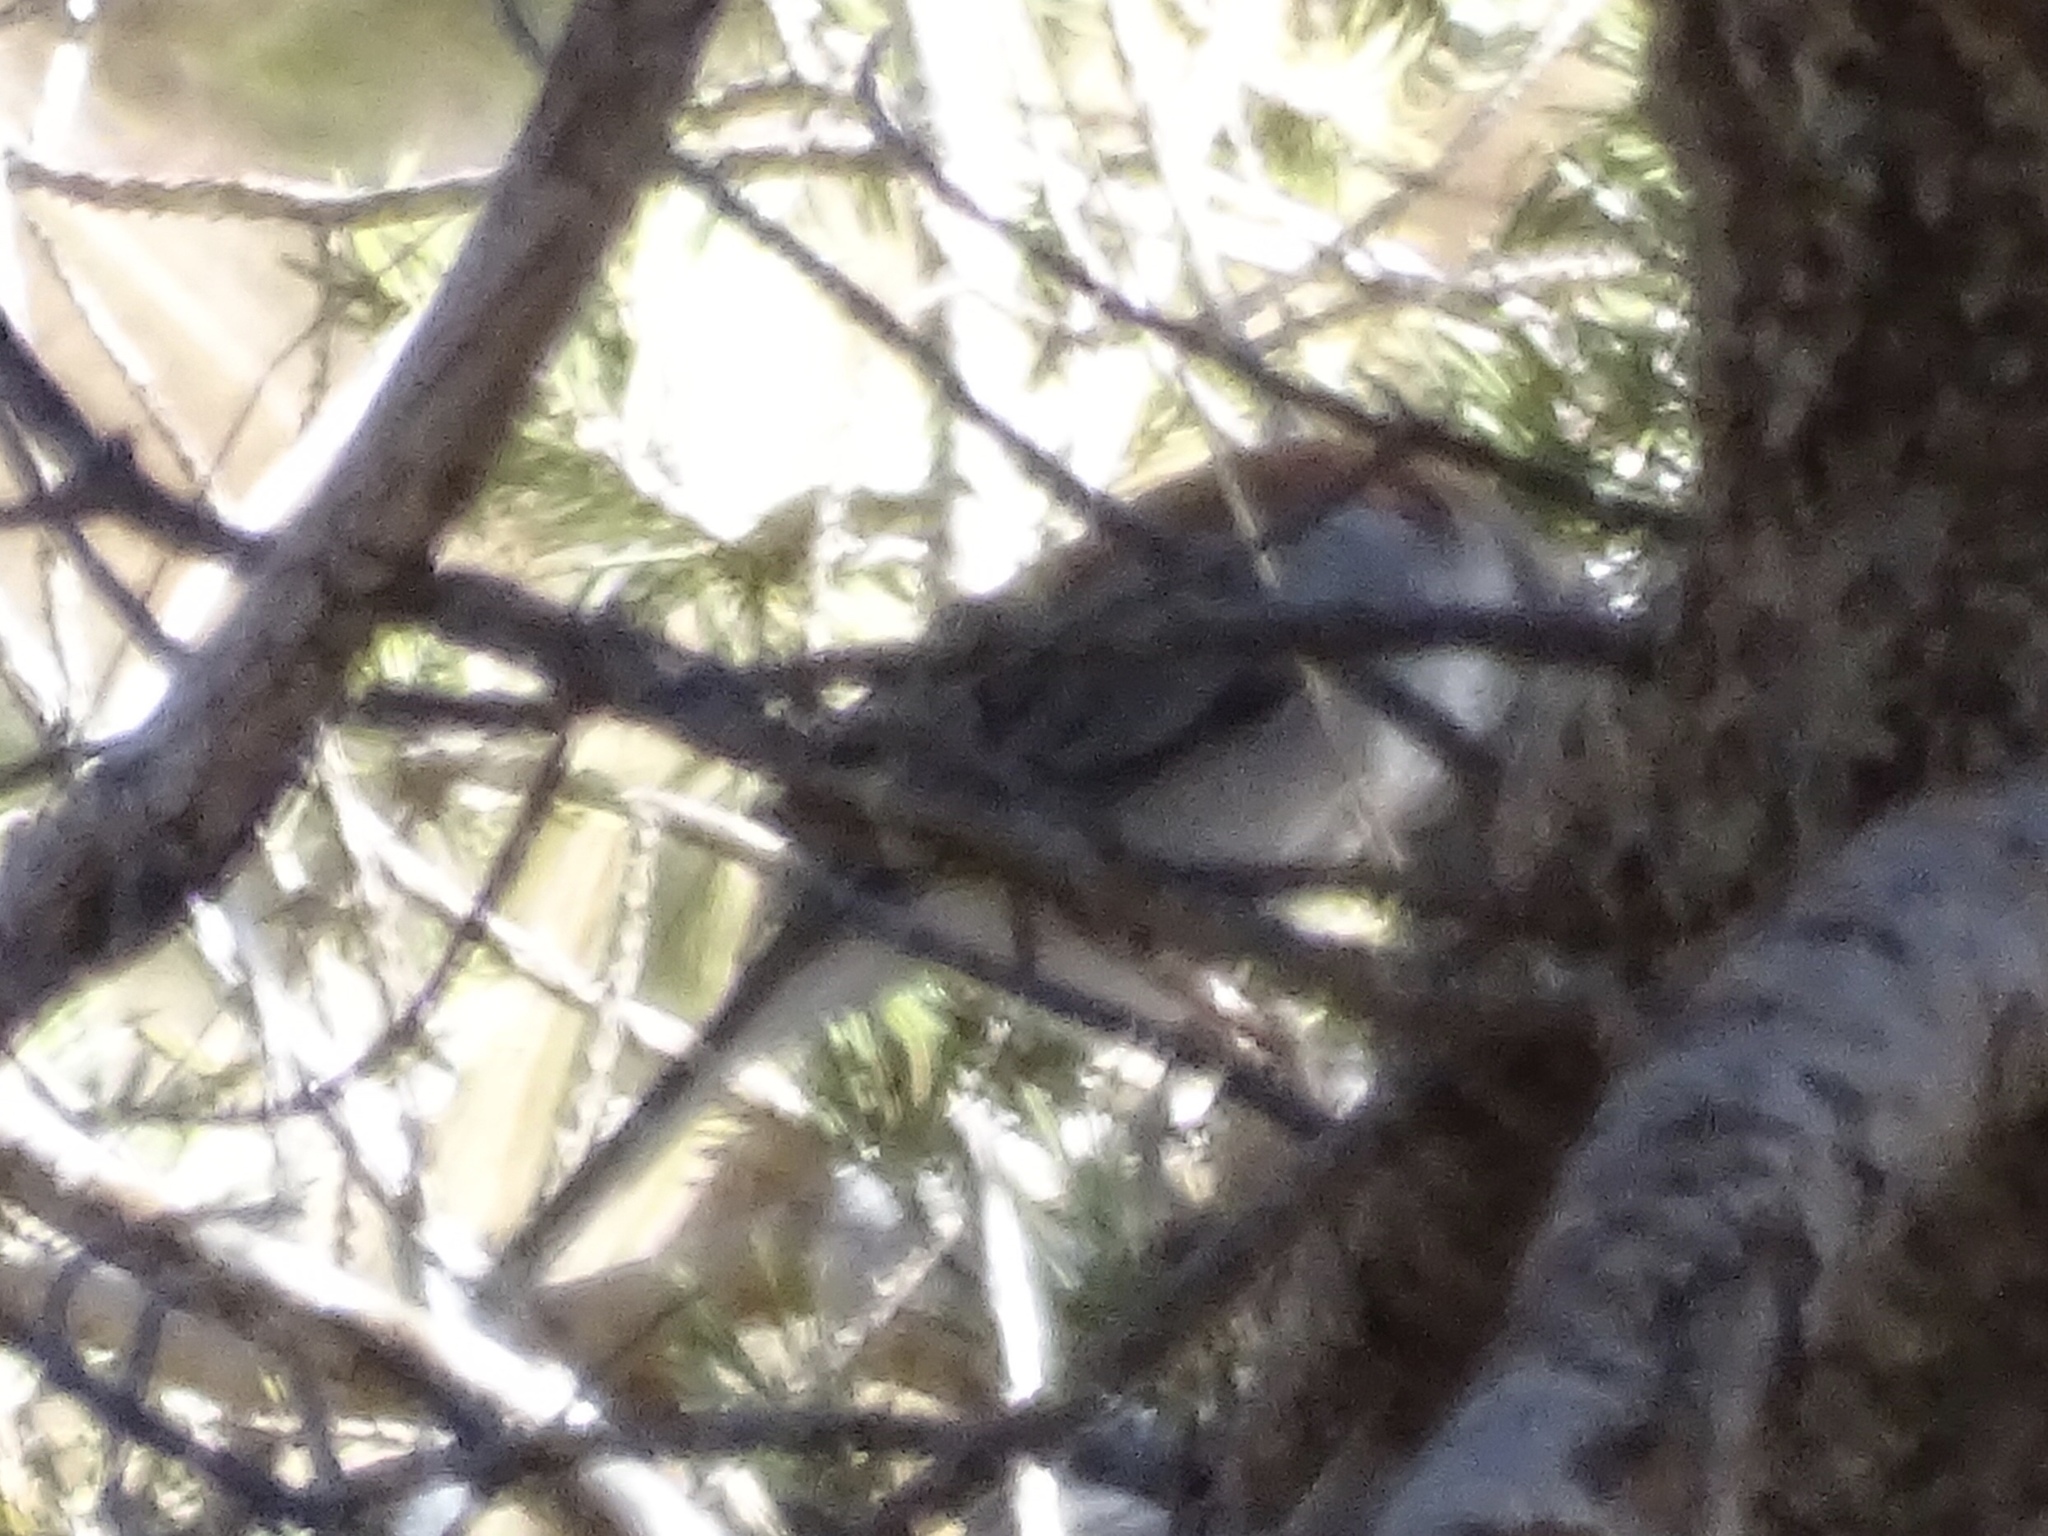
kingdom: Animalia
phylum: Chordata
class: Aves
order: Passeriformes
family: Passerellidae
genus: Junco
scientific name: Junco hyemalis
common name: Dark-eyed junco
